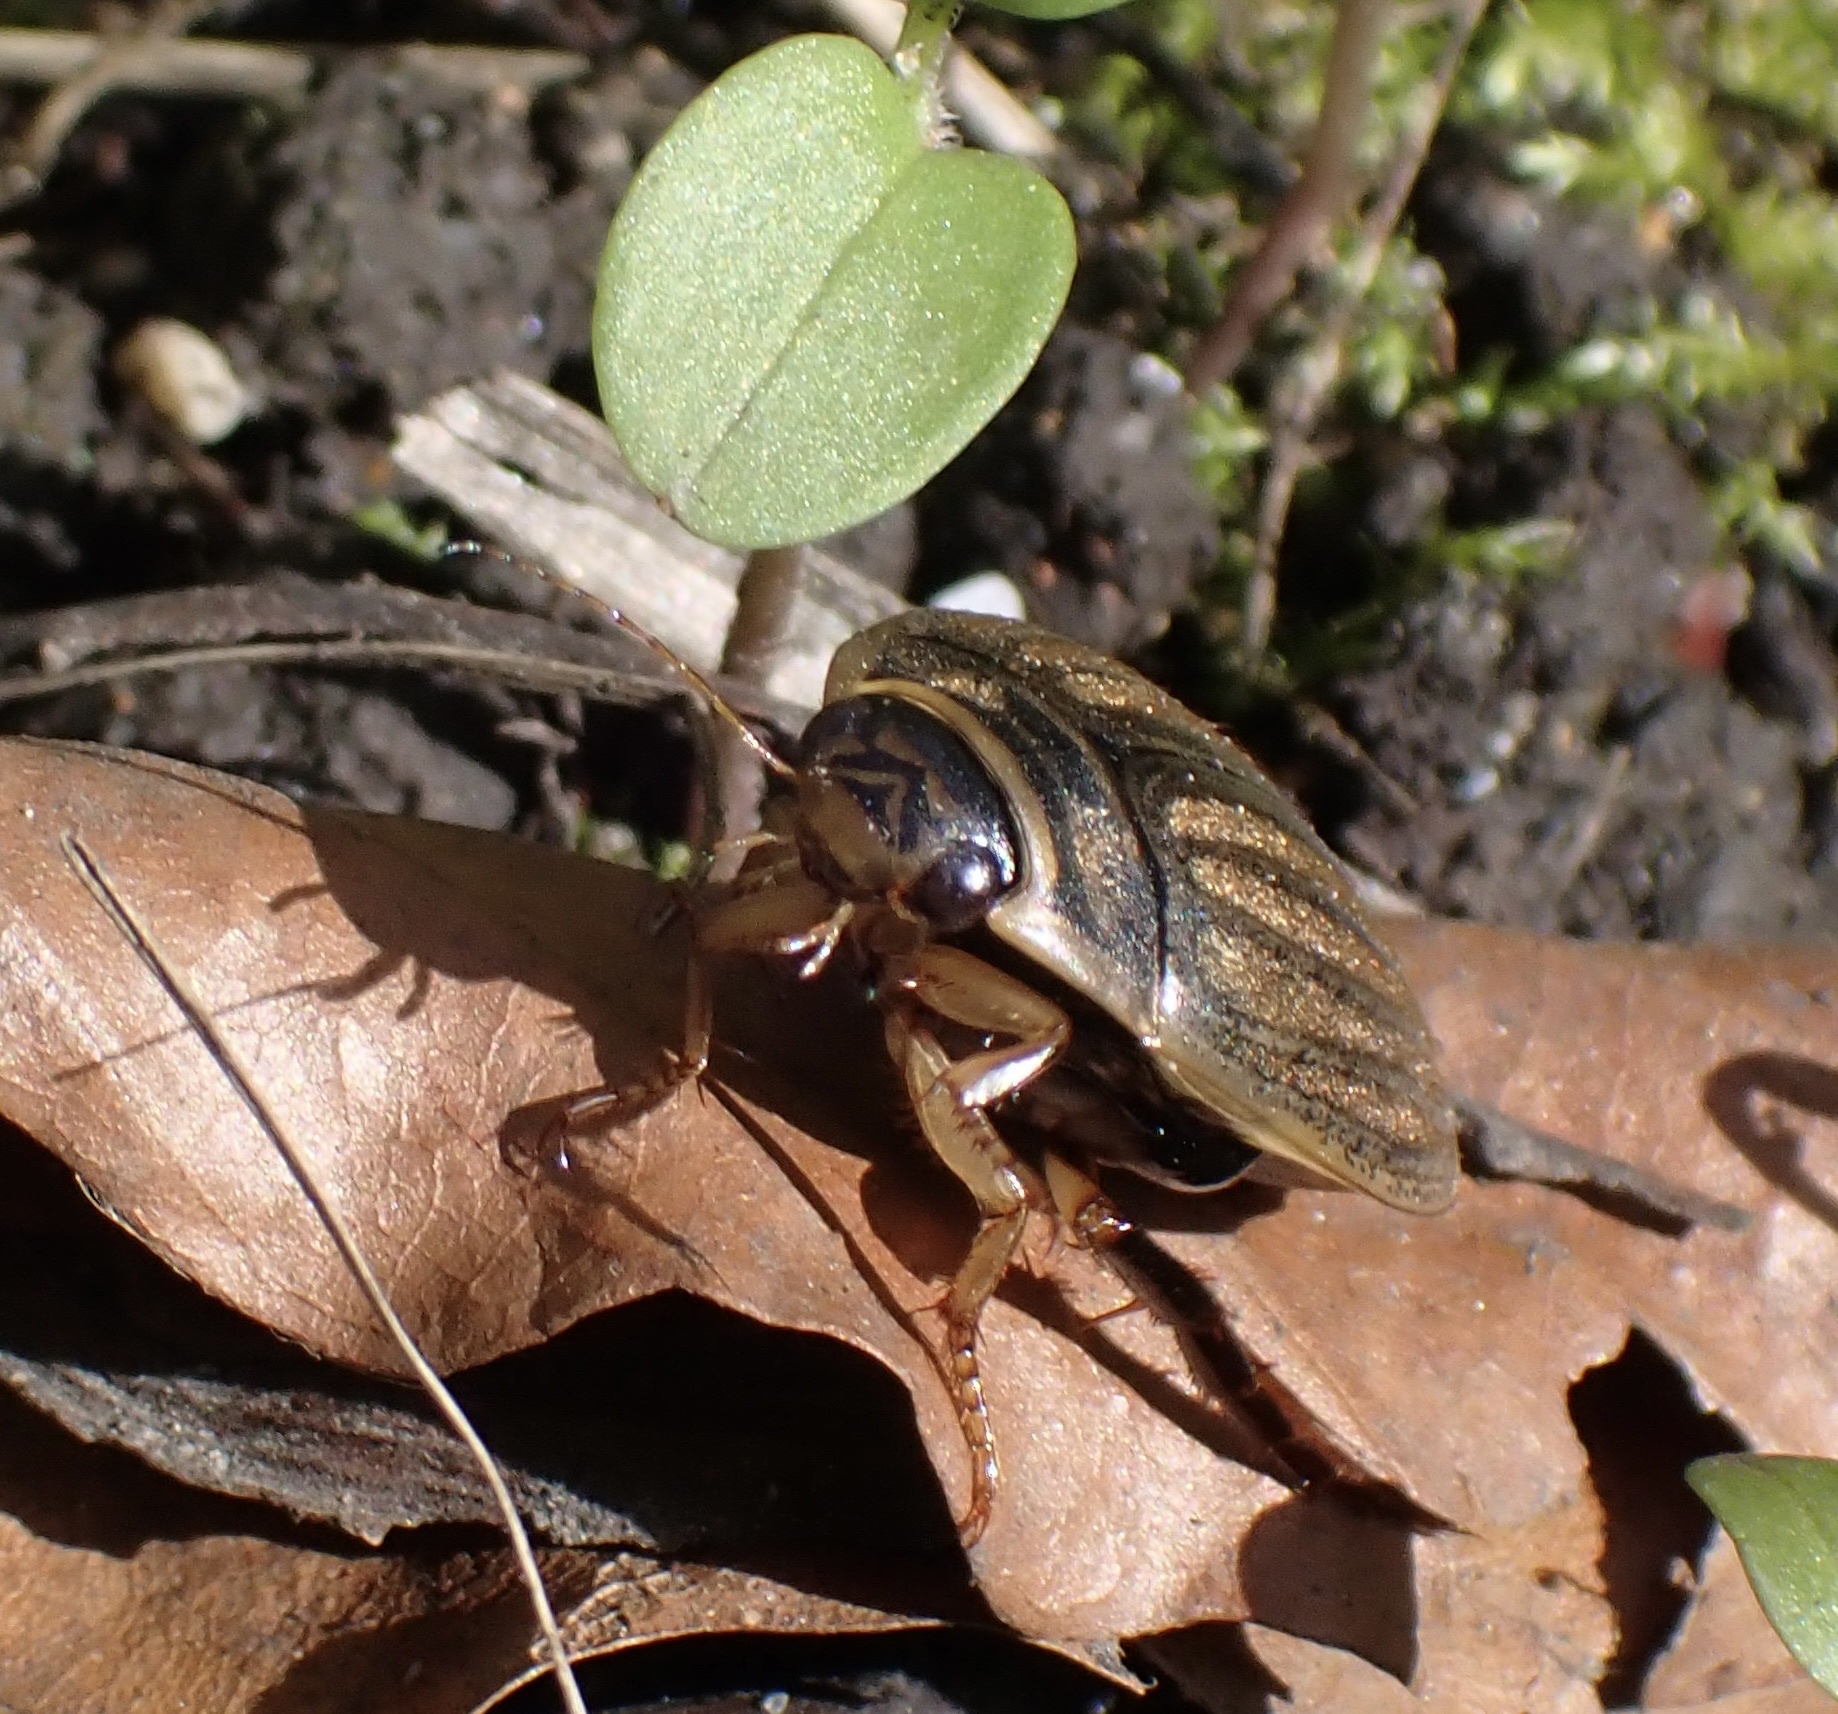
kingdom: Animalia
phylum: Arthropoda
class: Insecta
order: Coleoptera
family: Dytiscidae
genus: Acilius
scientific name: Acilius sulcatus
